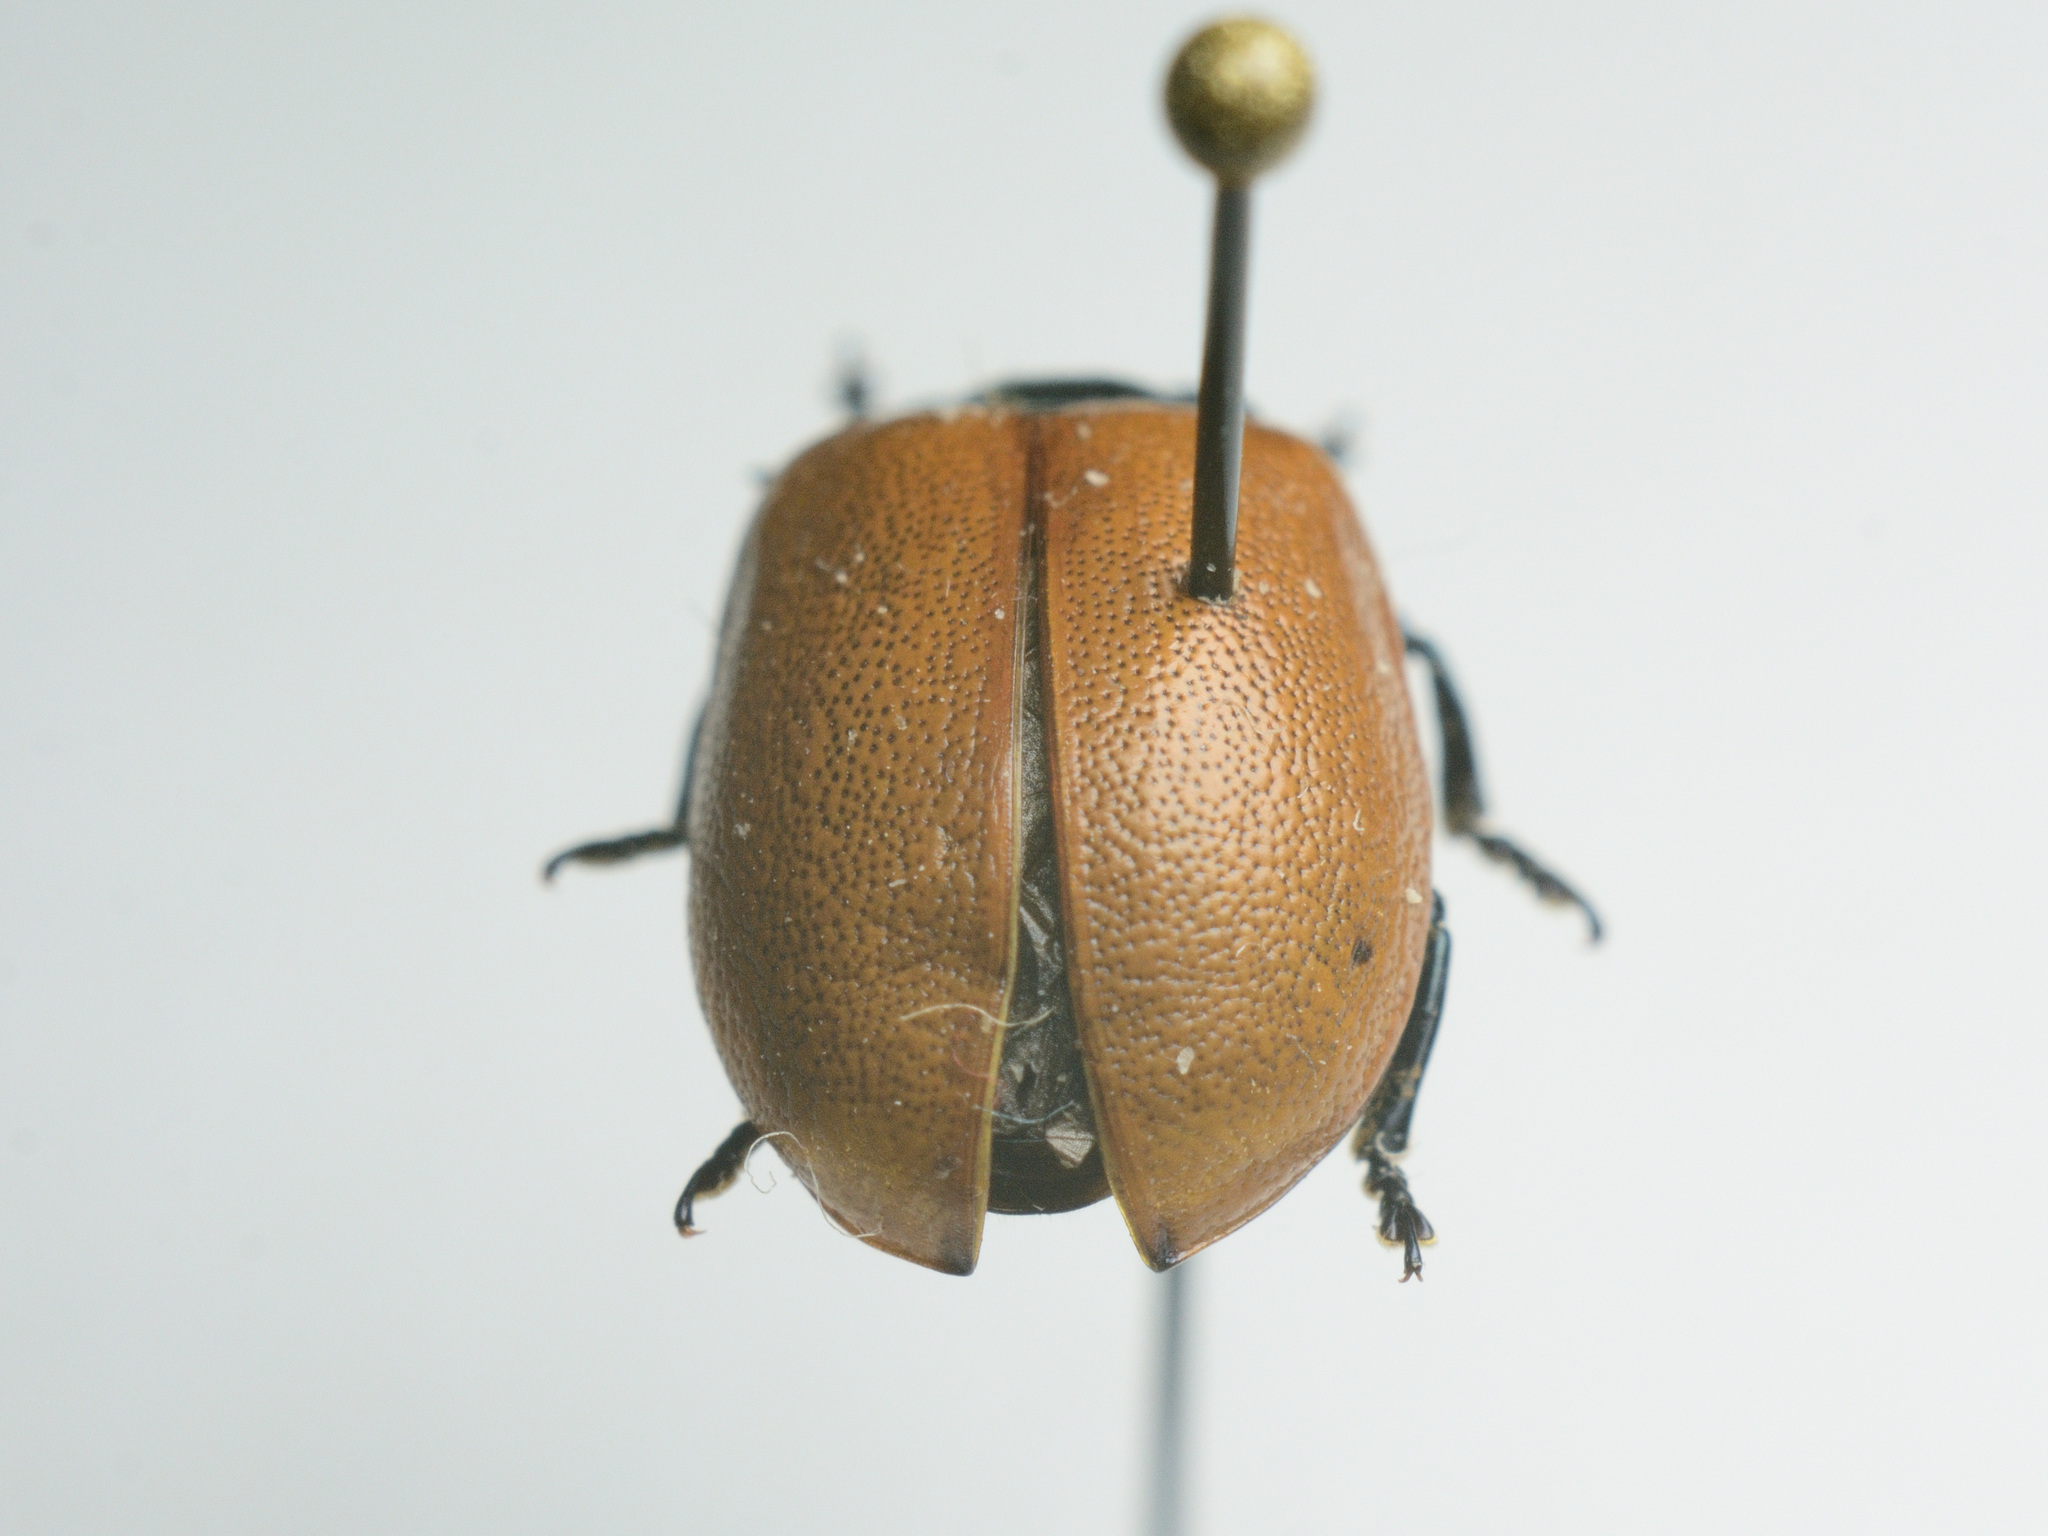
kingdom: Animalia
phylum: Arthropoda
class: Insecta
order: Coleoptera
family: Chrysomelidae
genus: Chrysomela
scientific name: Chrysomela populi
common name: Red poplar leaf beetle
